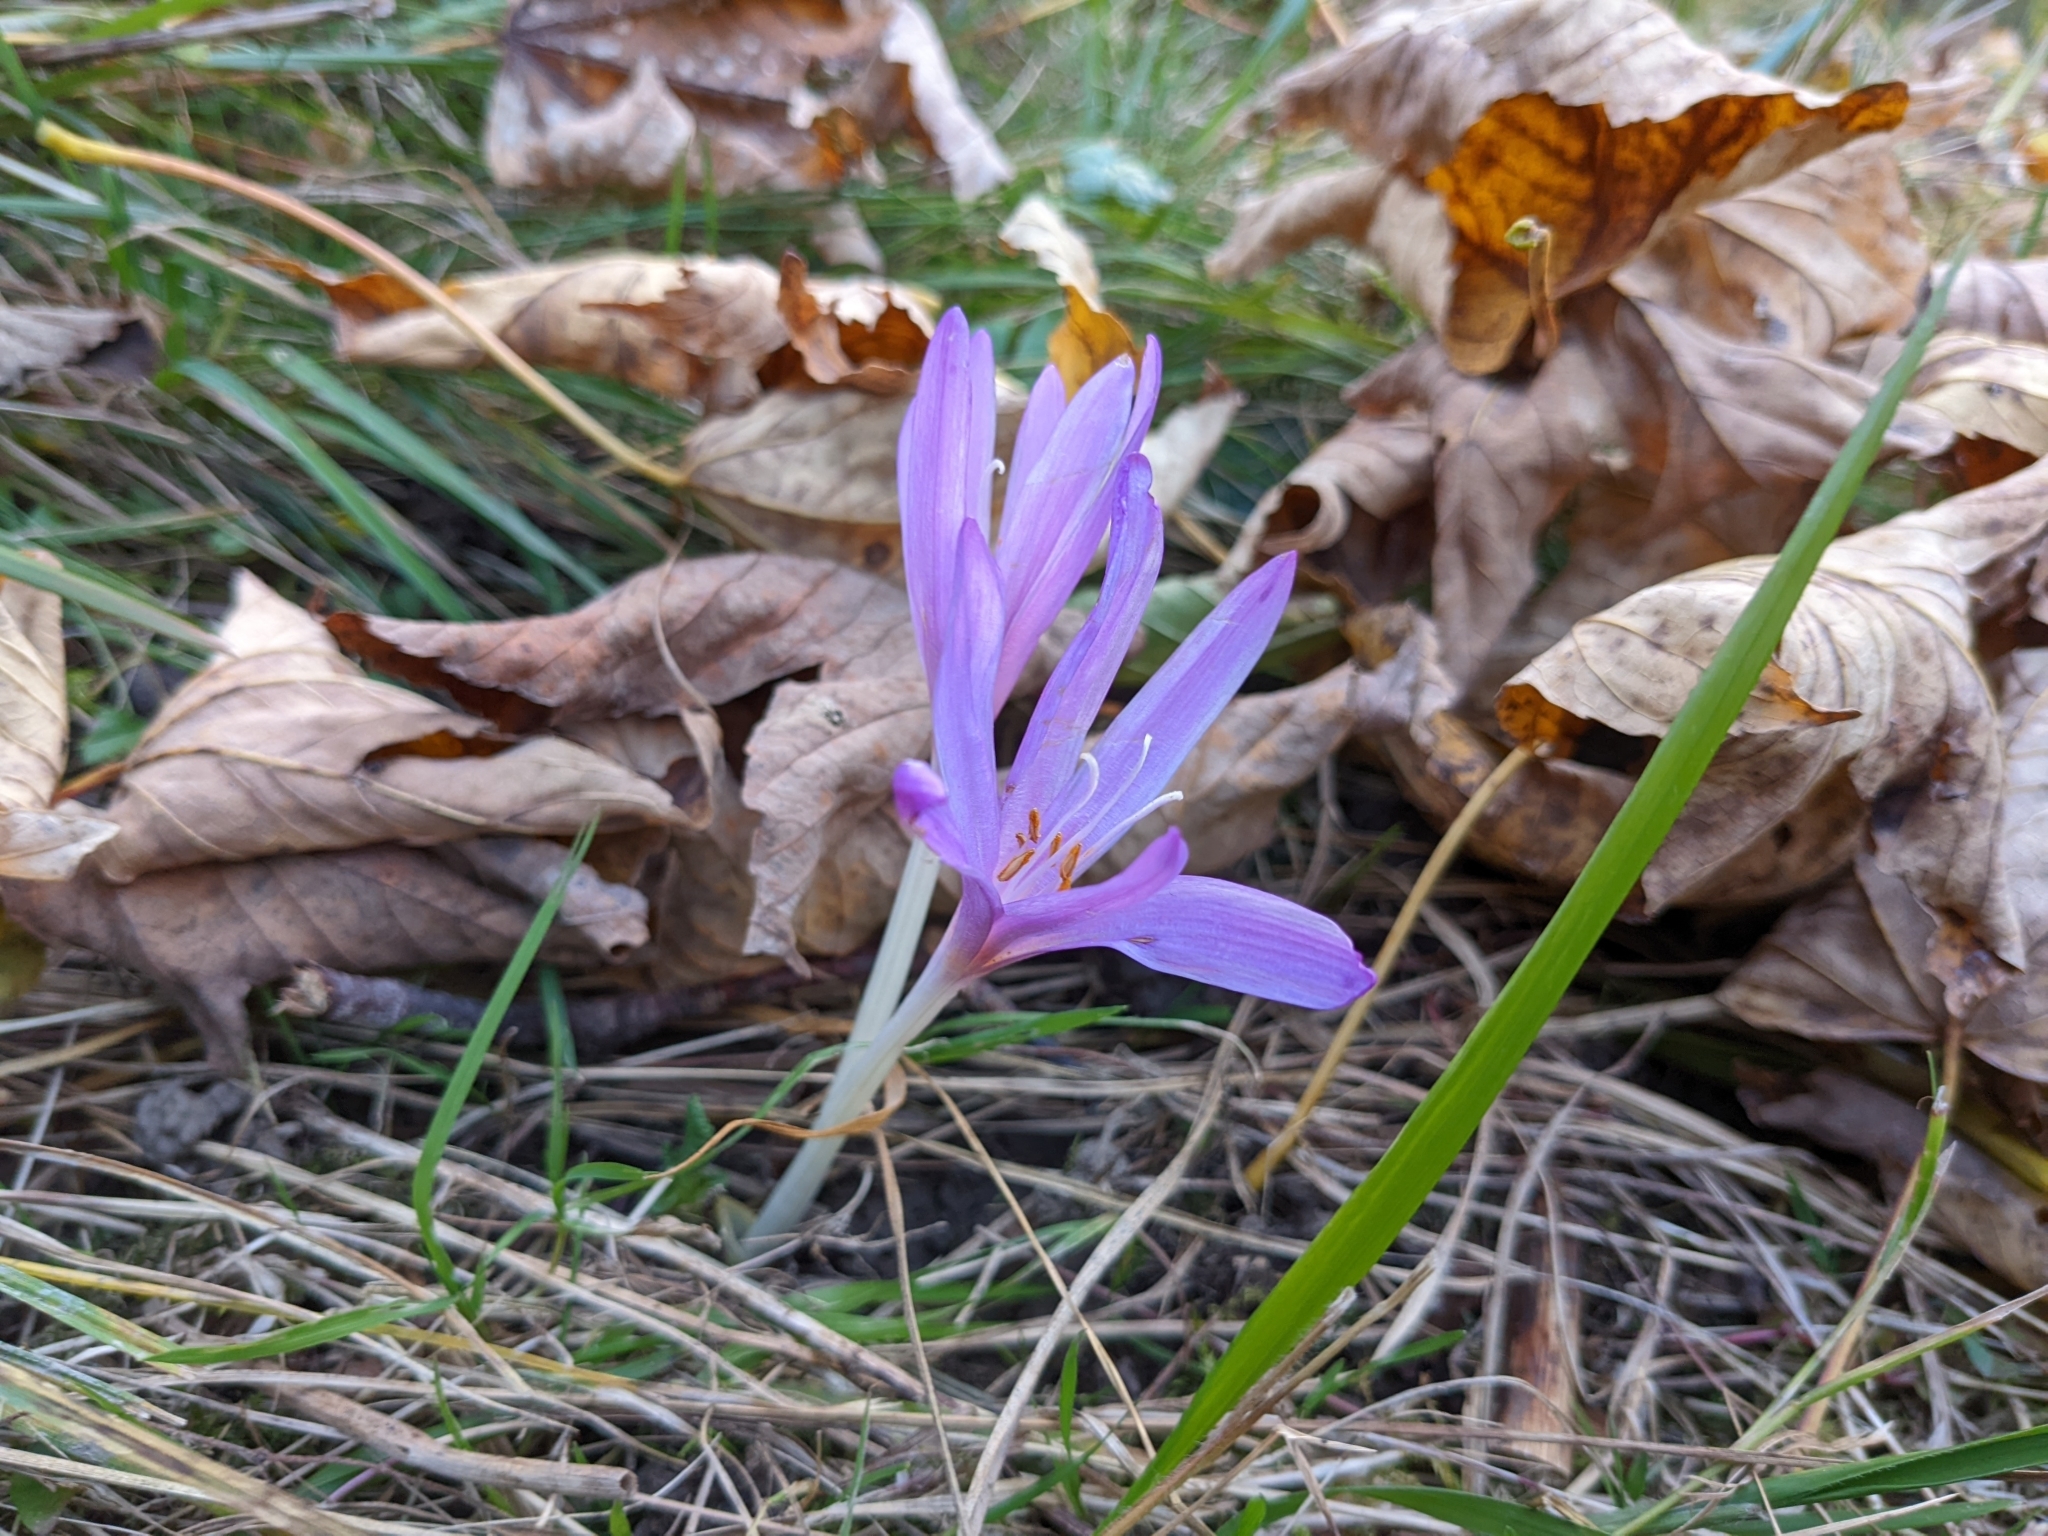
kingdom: Plantae
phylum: Tracheophyta
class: Liliopsida
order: Liliales
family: Colchicaceae
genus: Colchicum
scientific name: Colchicum autumnale
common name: Autumn crocus
